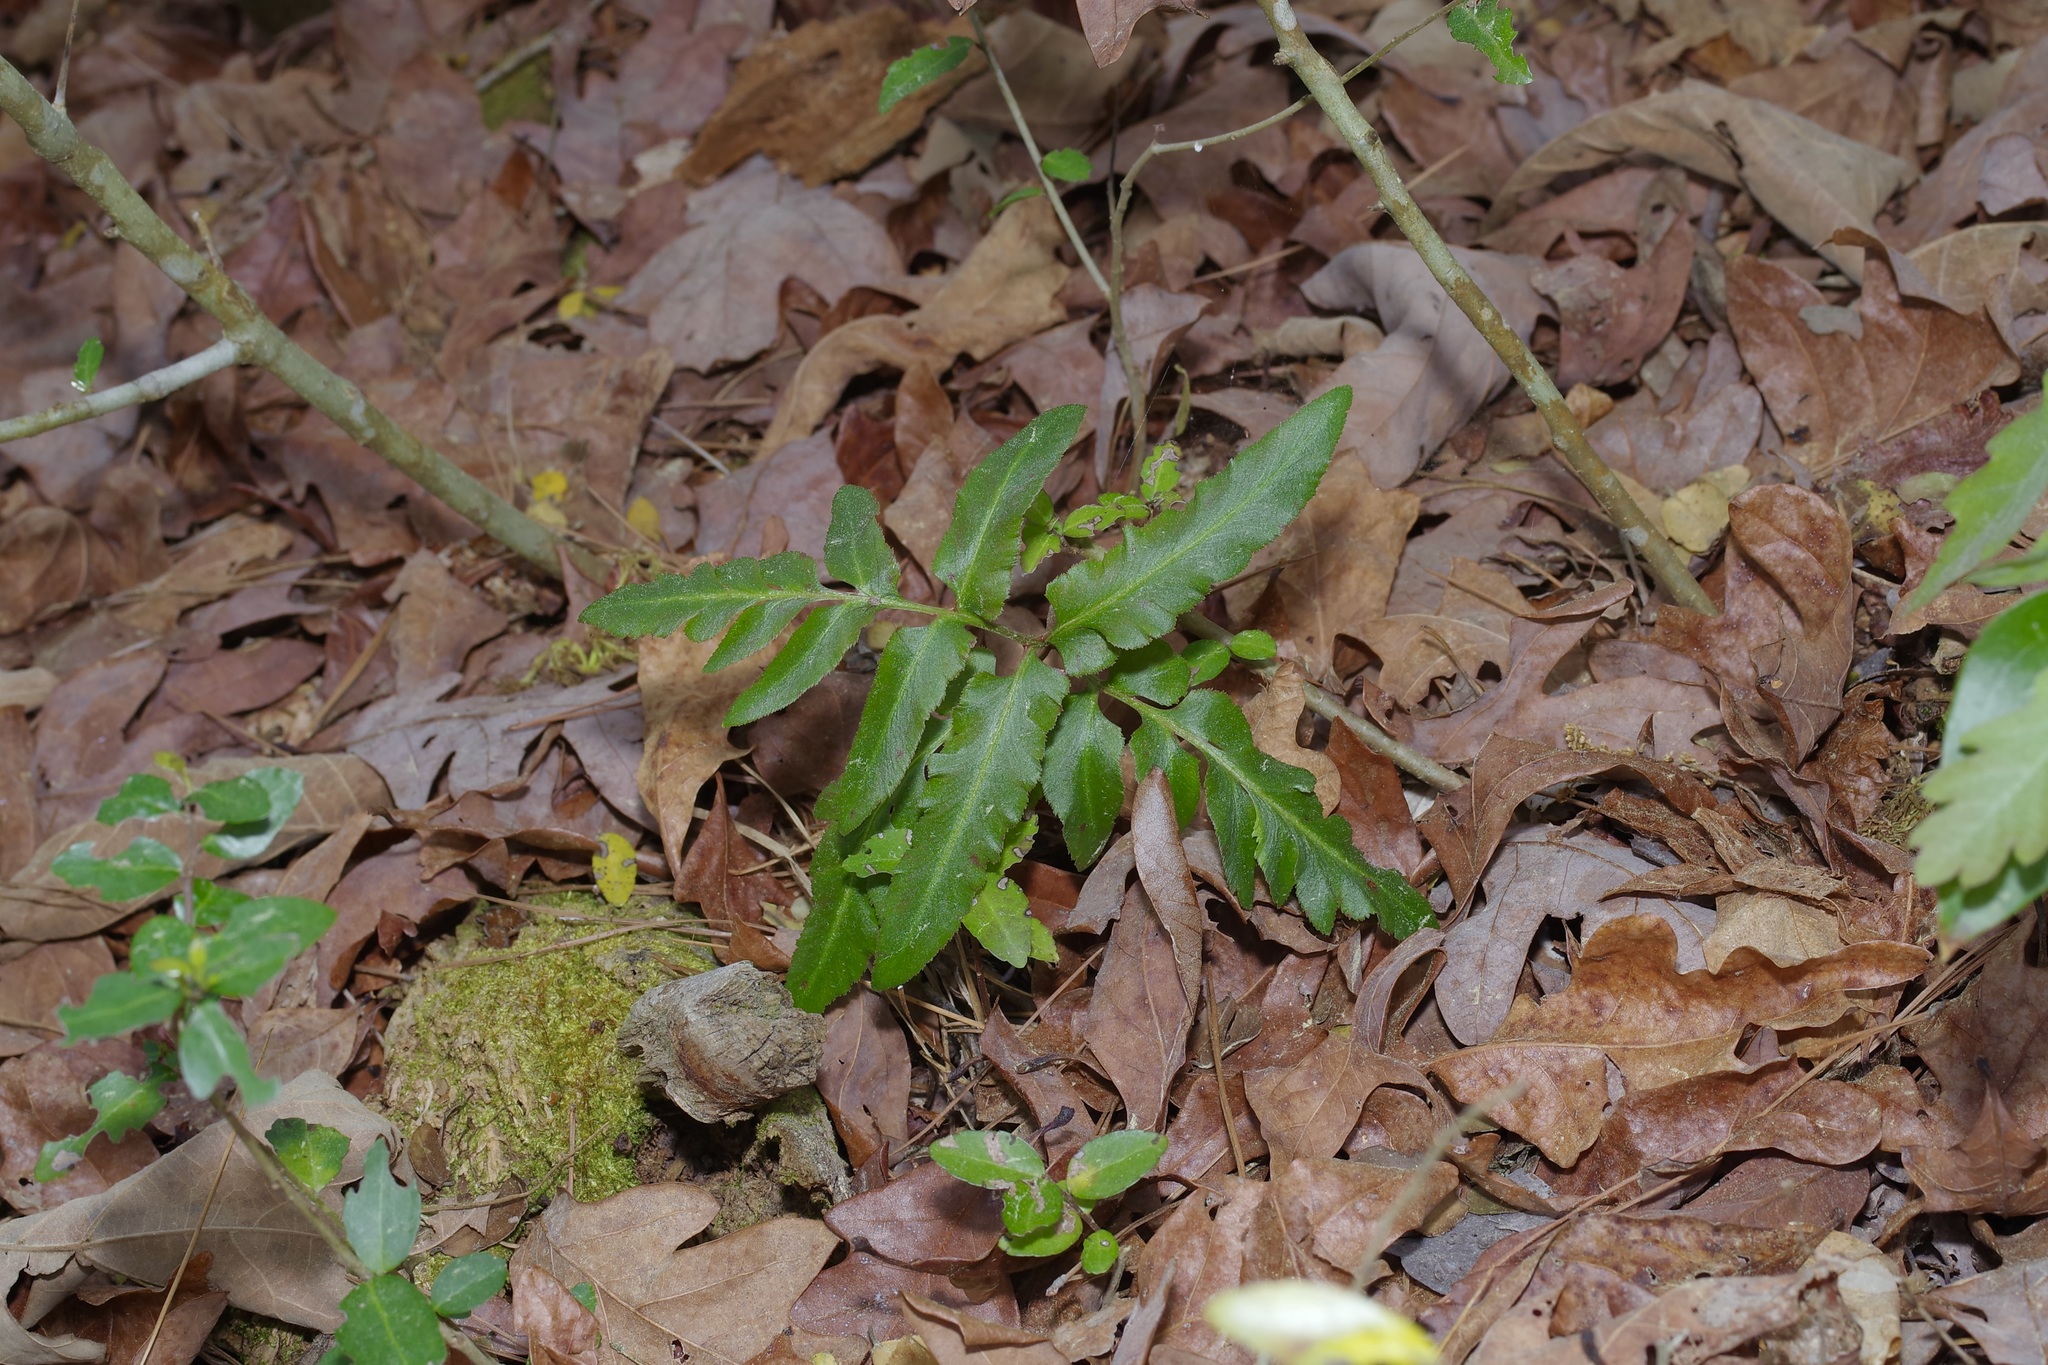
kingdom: Plantae
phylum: Tracheophyta
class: Polypodiopsida
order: Ophioglossales
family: Ophioglossaceae
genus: Sceptridium
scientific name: Sceptridium biternatum
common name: Sparse-lobed grapefern
